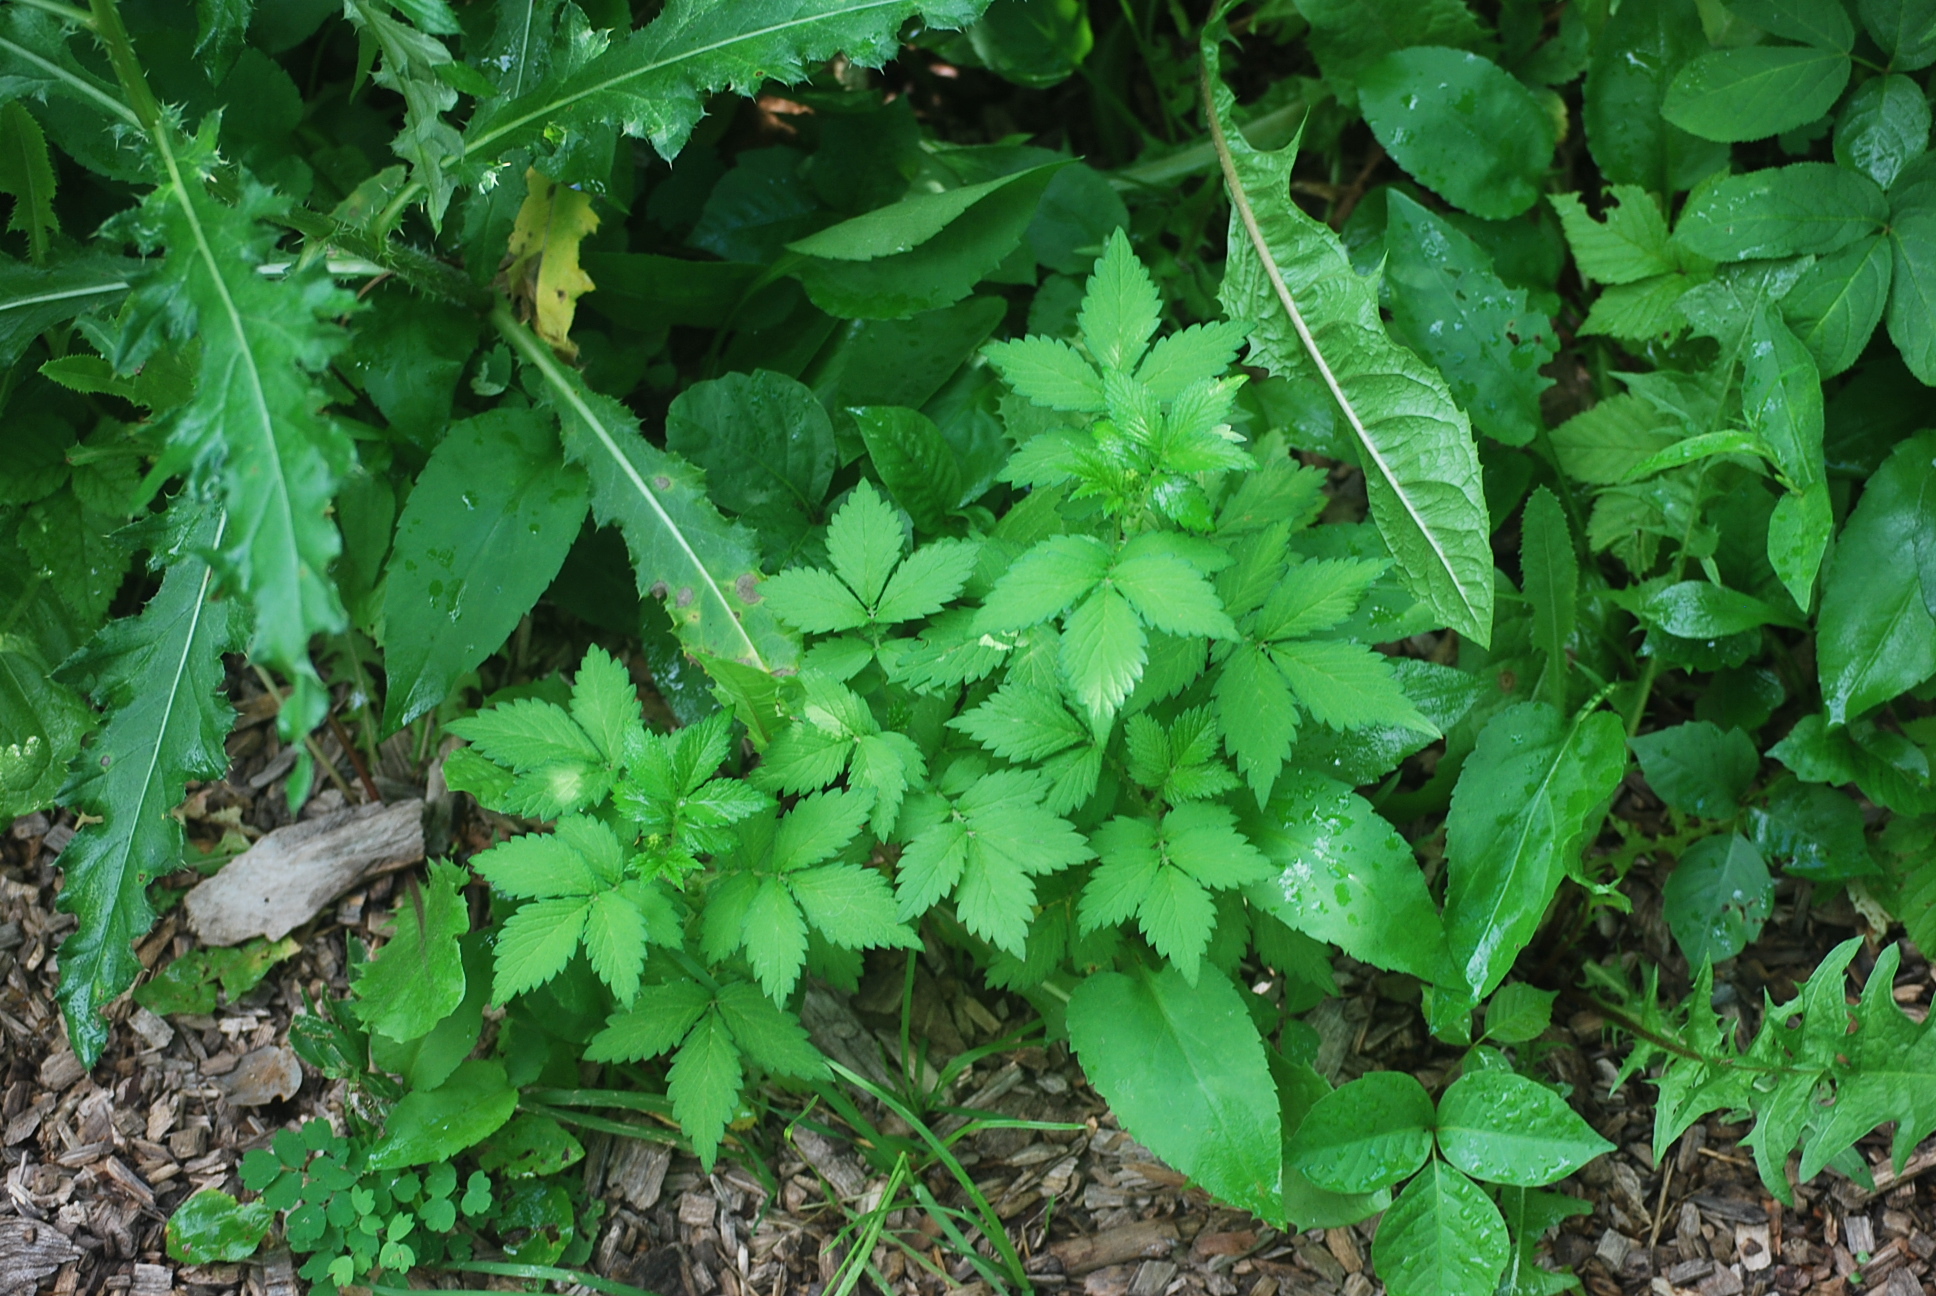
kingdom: Plantae
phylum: Tracheophyta
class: Magnoliopsida
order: Rosales
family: Rosaceae
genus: Agrimonia
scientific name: Agrimonia striata
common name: Britton's agrimony
